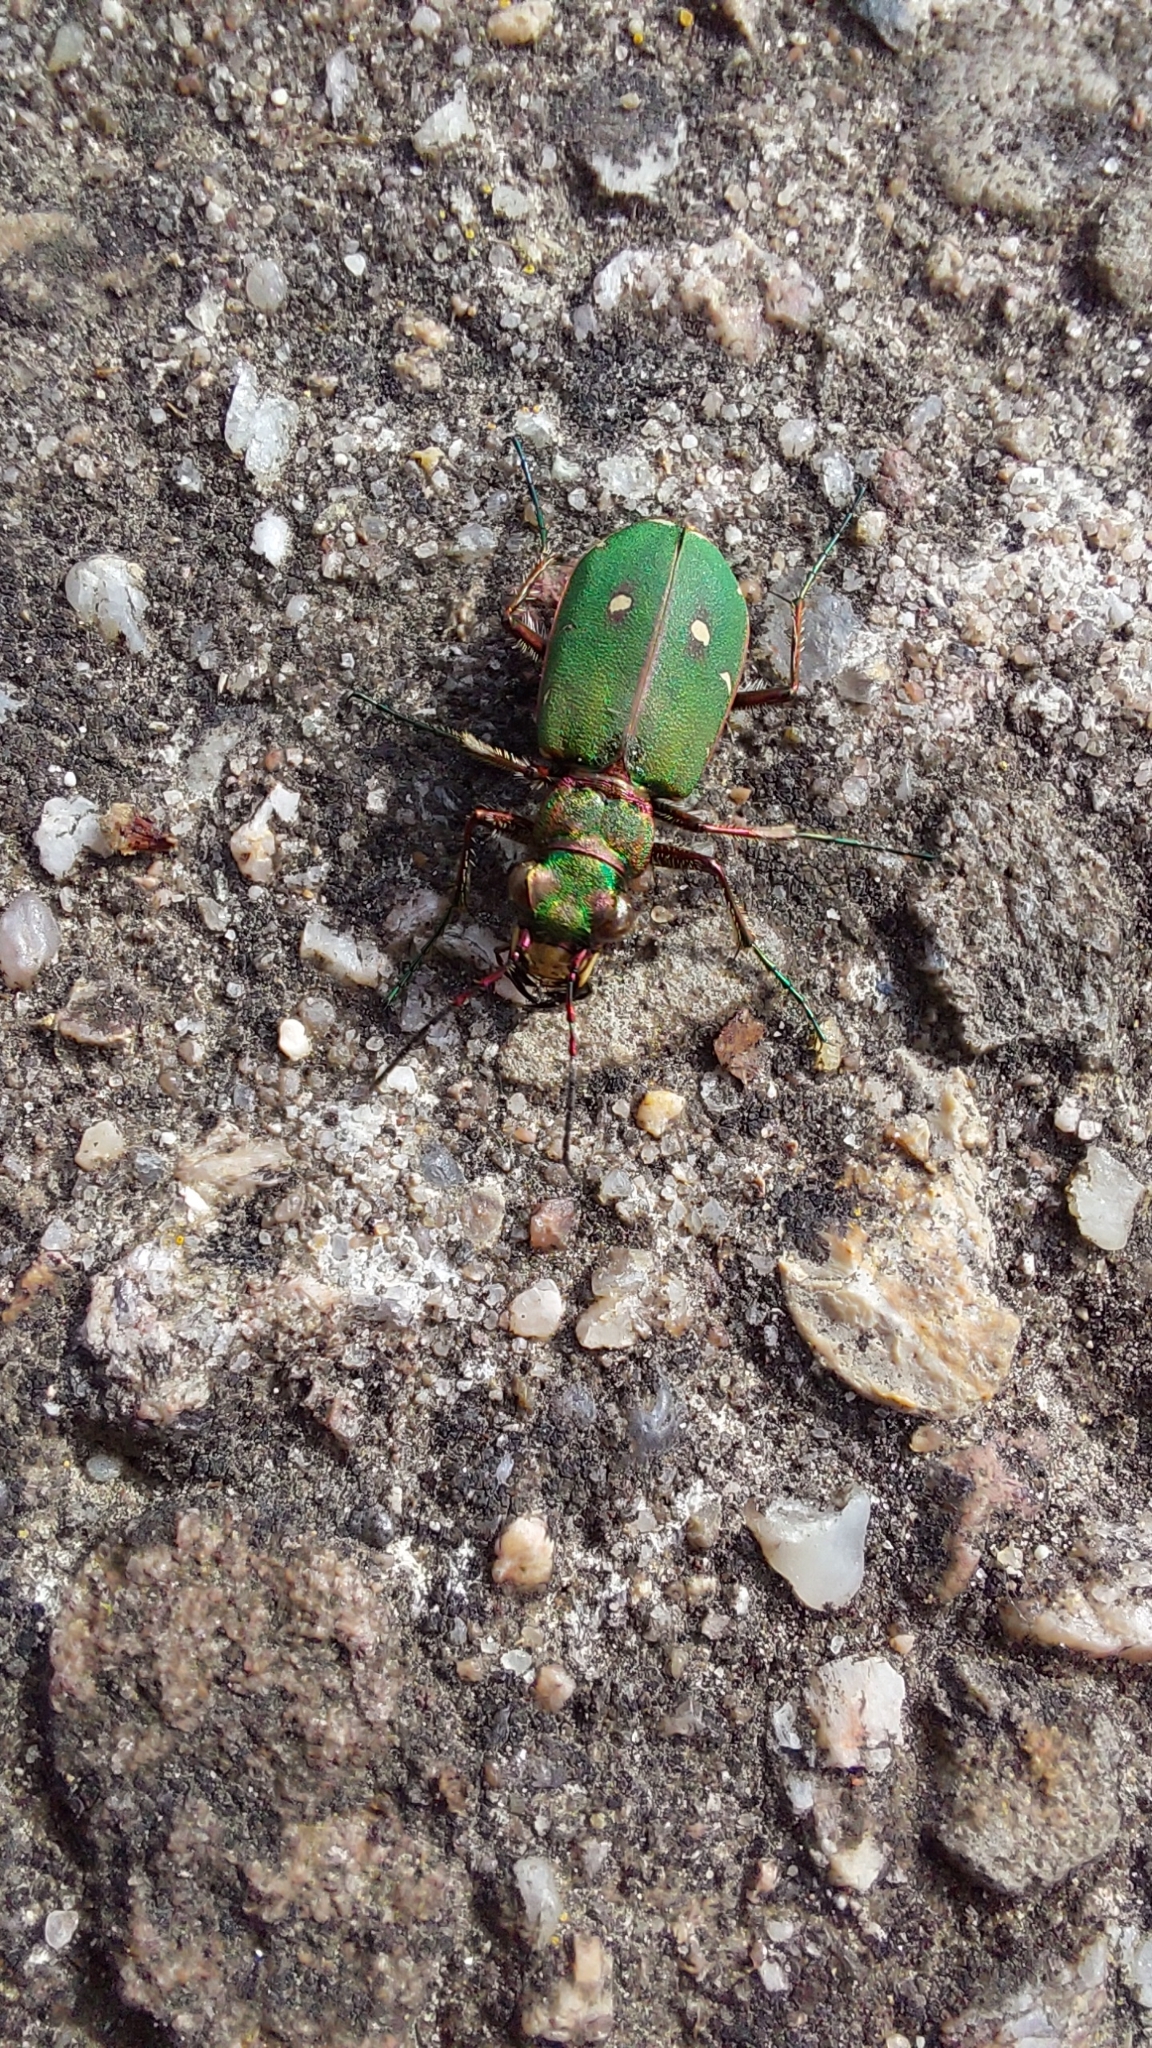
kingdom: Animalia
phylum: Arthropoda
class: Insecta
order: Coleoptera
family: Carabidae
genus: Cicindela
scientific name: Cicindela campestris
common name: Common tiger beetle
